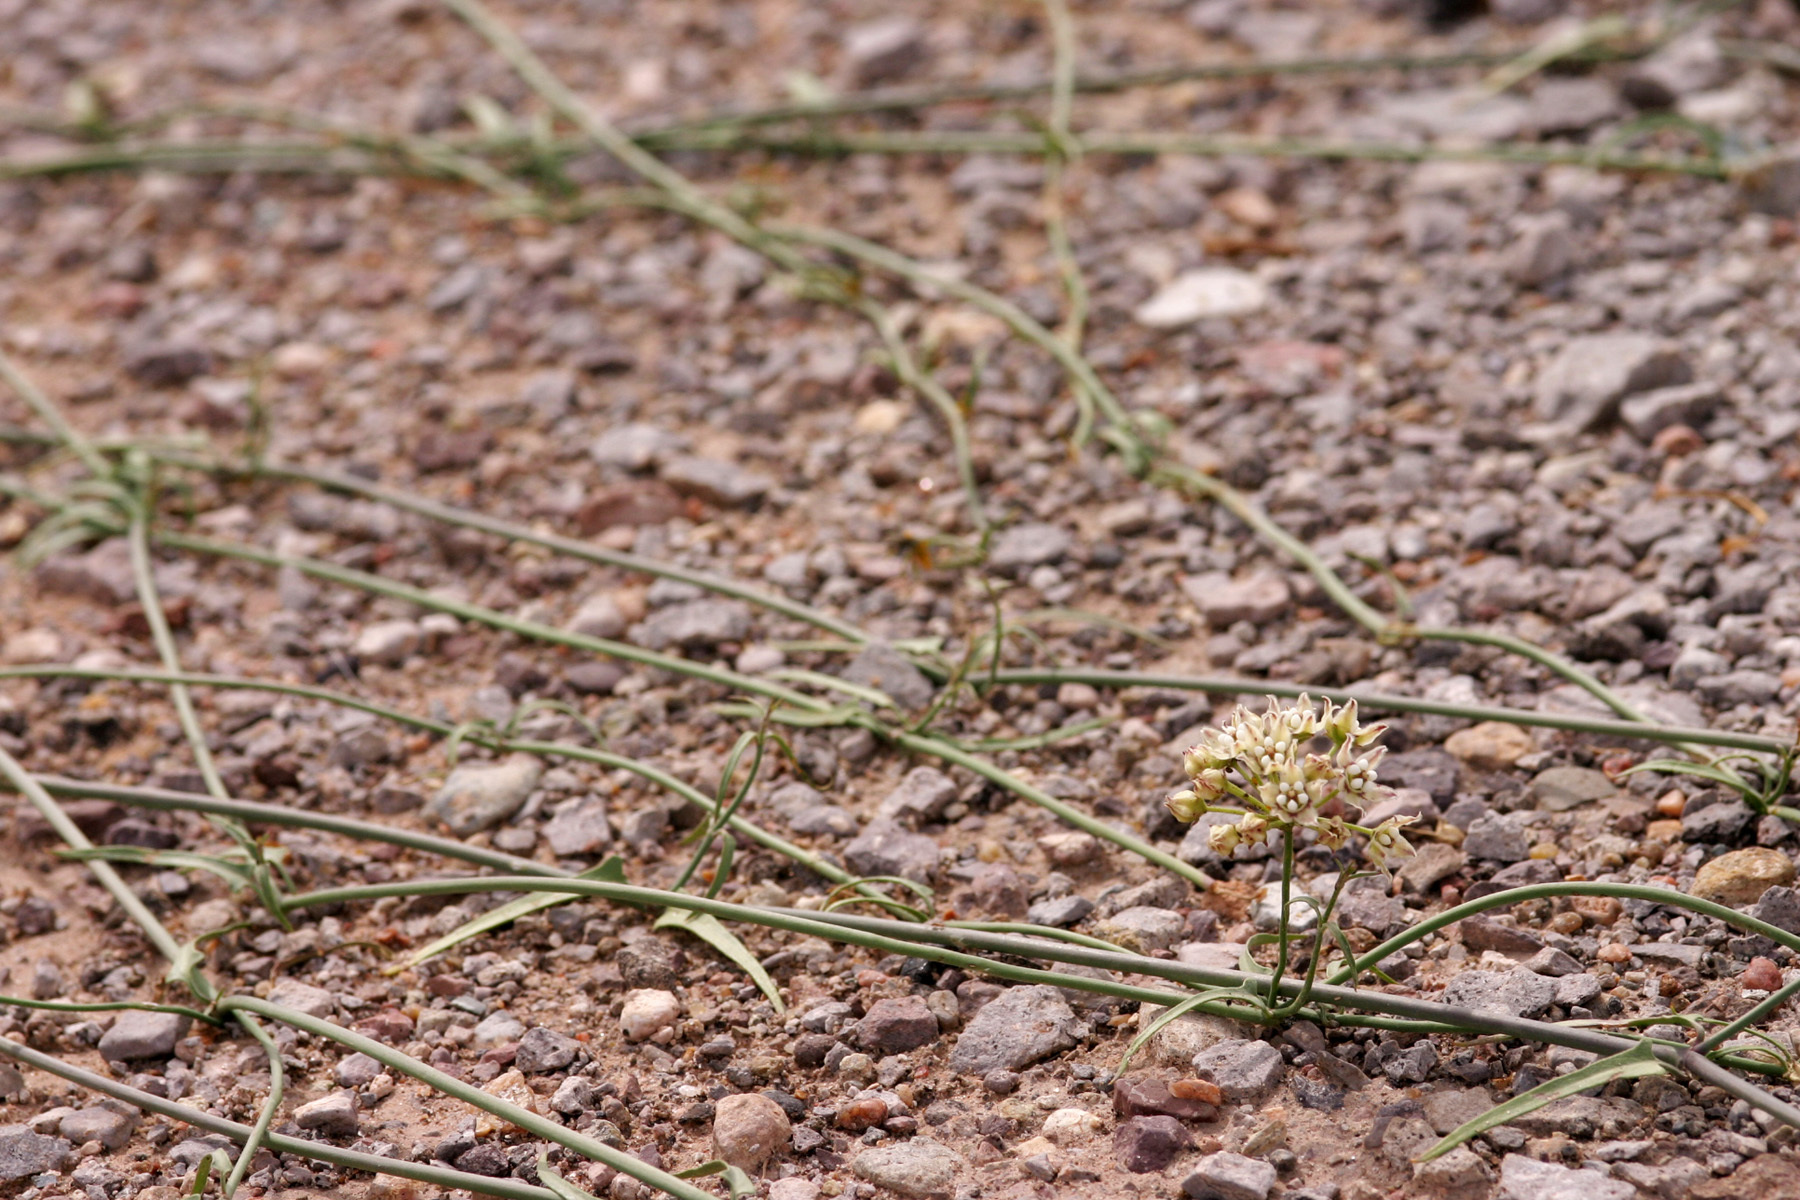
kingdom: Plantae
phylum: Tracheophyta
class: Magnoliopsida
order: Gentianales
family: Apocynaceae
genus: Funastrum
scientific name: Funastrum heterophyllum
